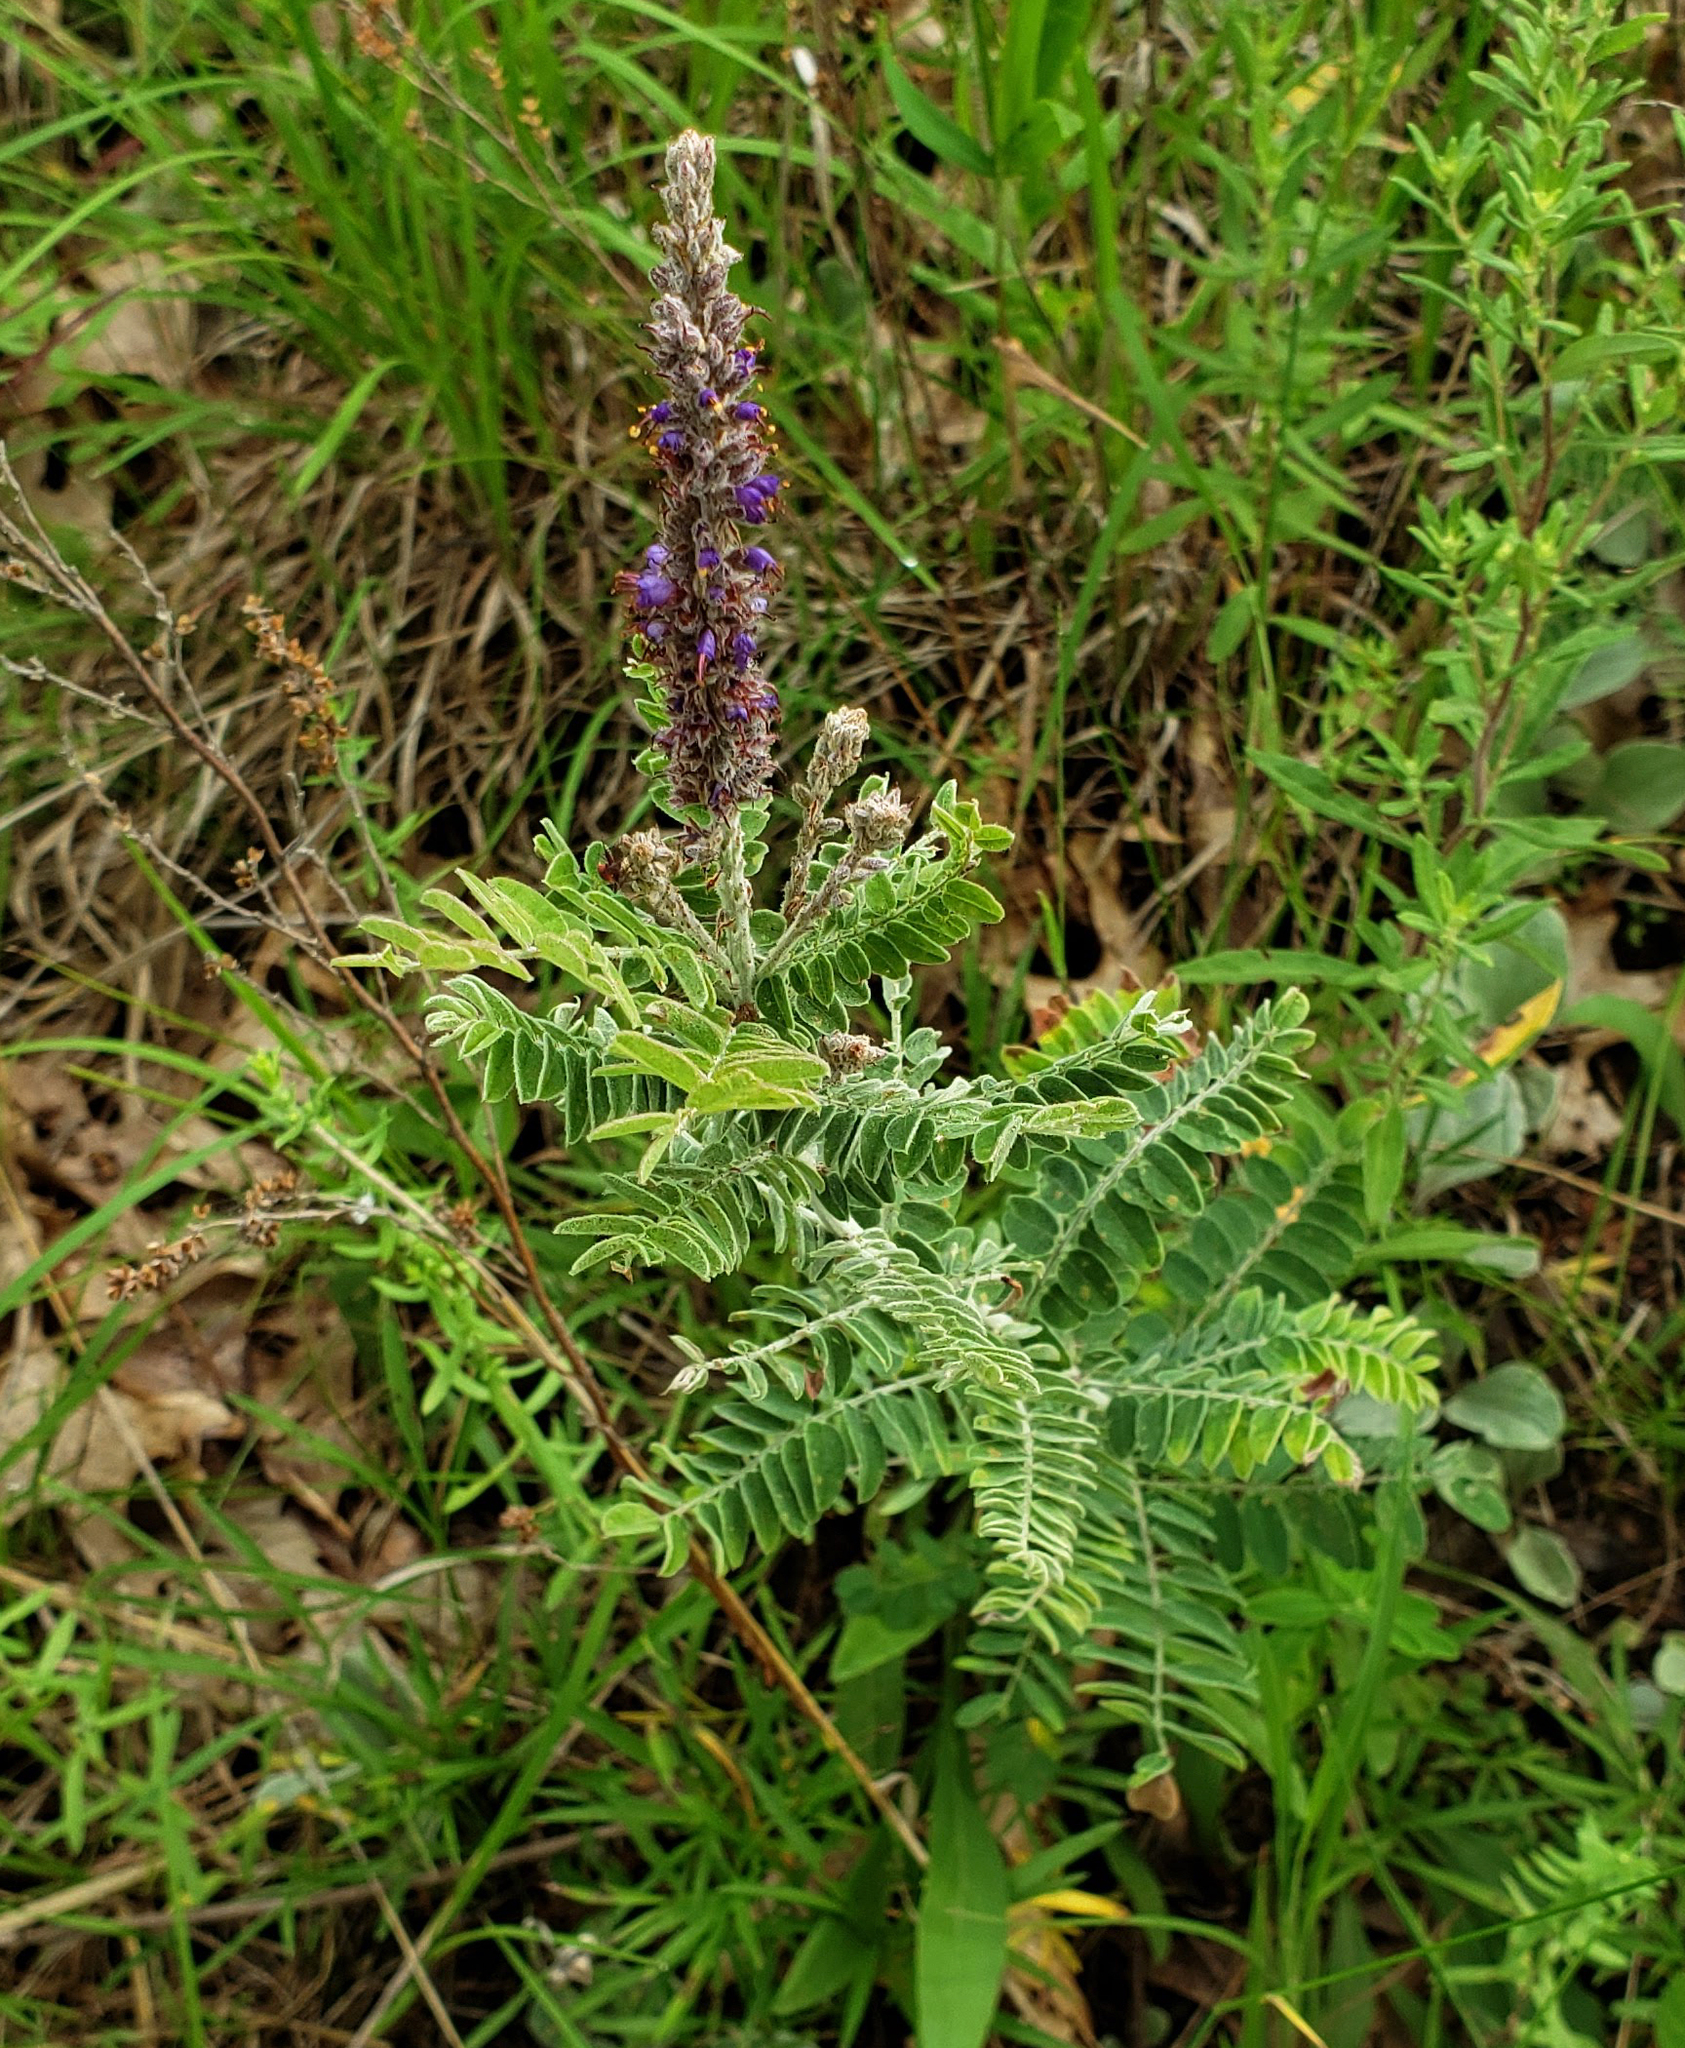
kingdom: Plantae
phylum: Tracheophyta
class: Magnoliopsida
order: Fabales
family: Fabaceae
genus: Amorpha
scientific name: Amorpha canescens
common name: Leadplant
